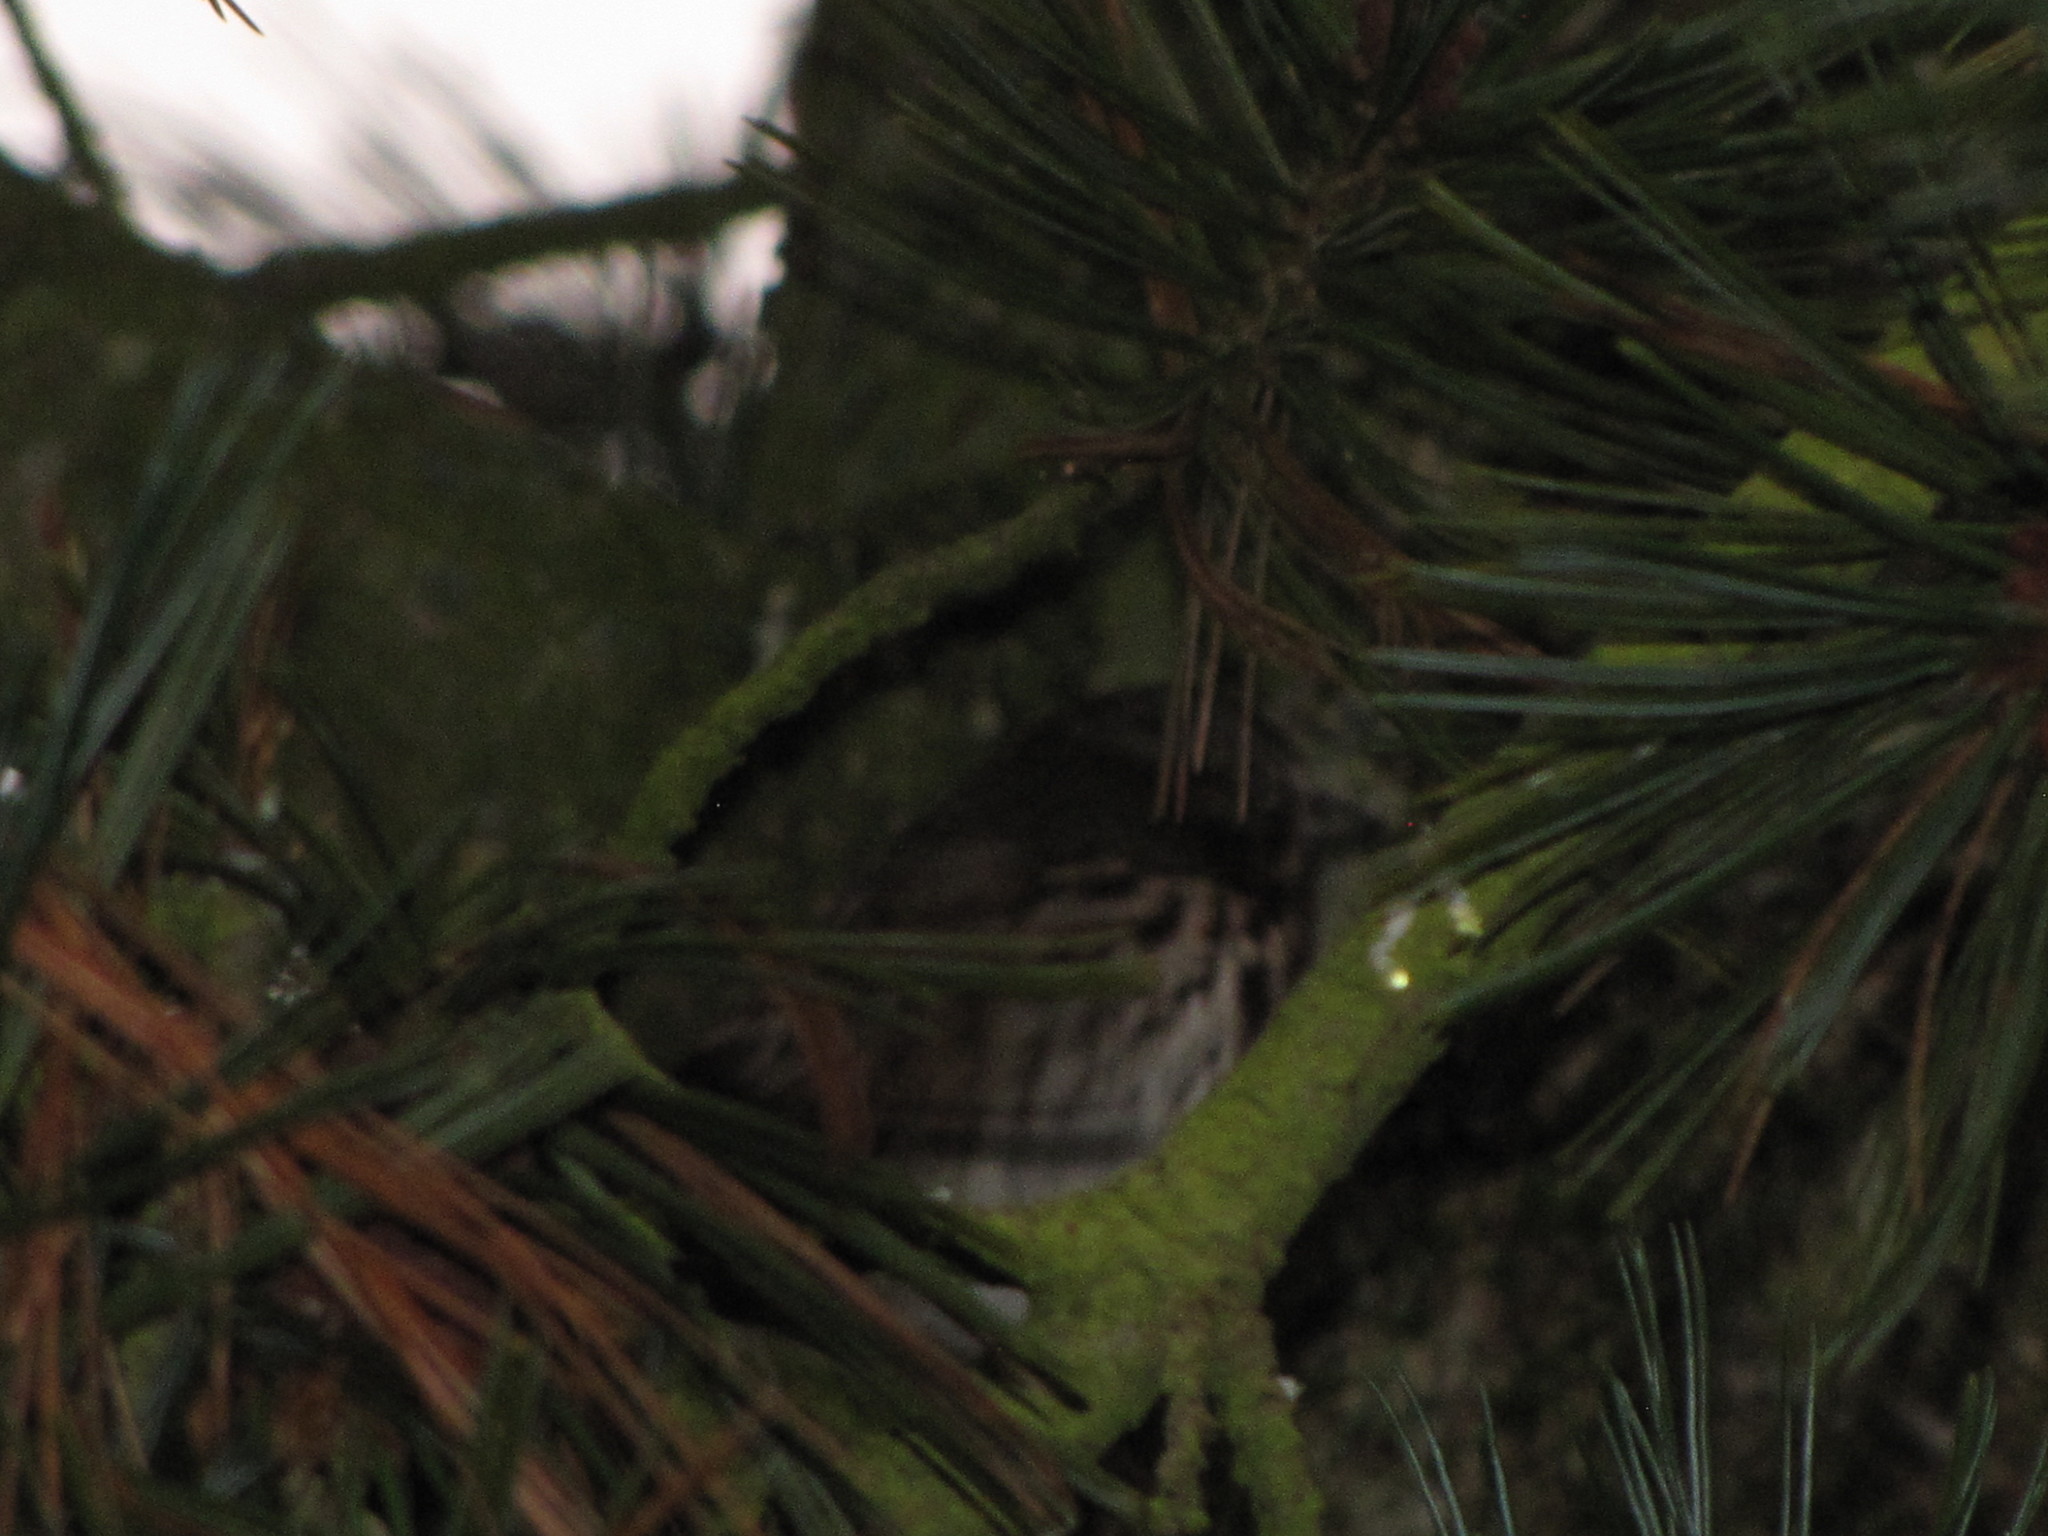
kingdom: Animalia
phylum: Chordata
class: Aves
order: Passeriformes
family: Passerellidae
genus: Melospiza
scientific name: Melospiza melodia
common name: Song sparrow
